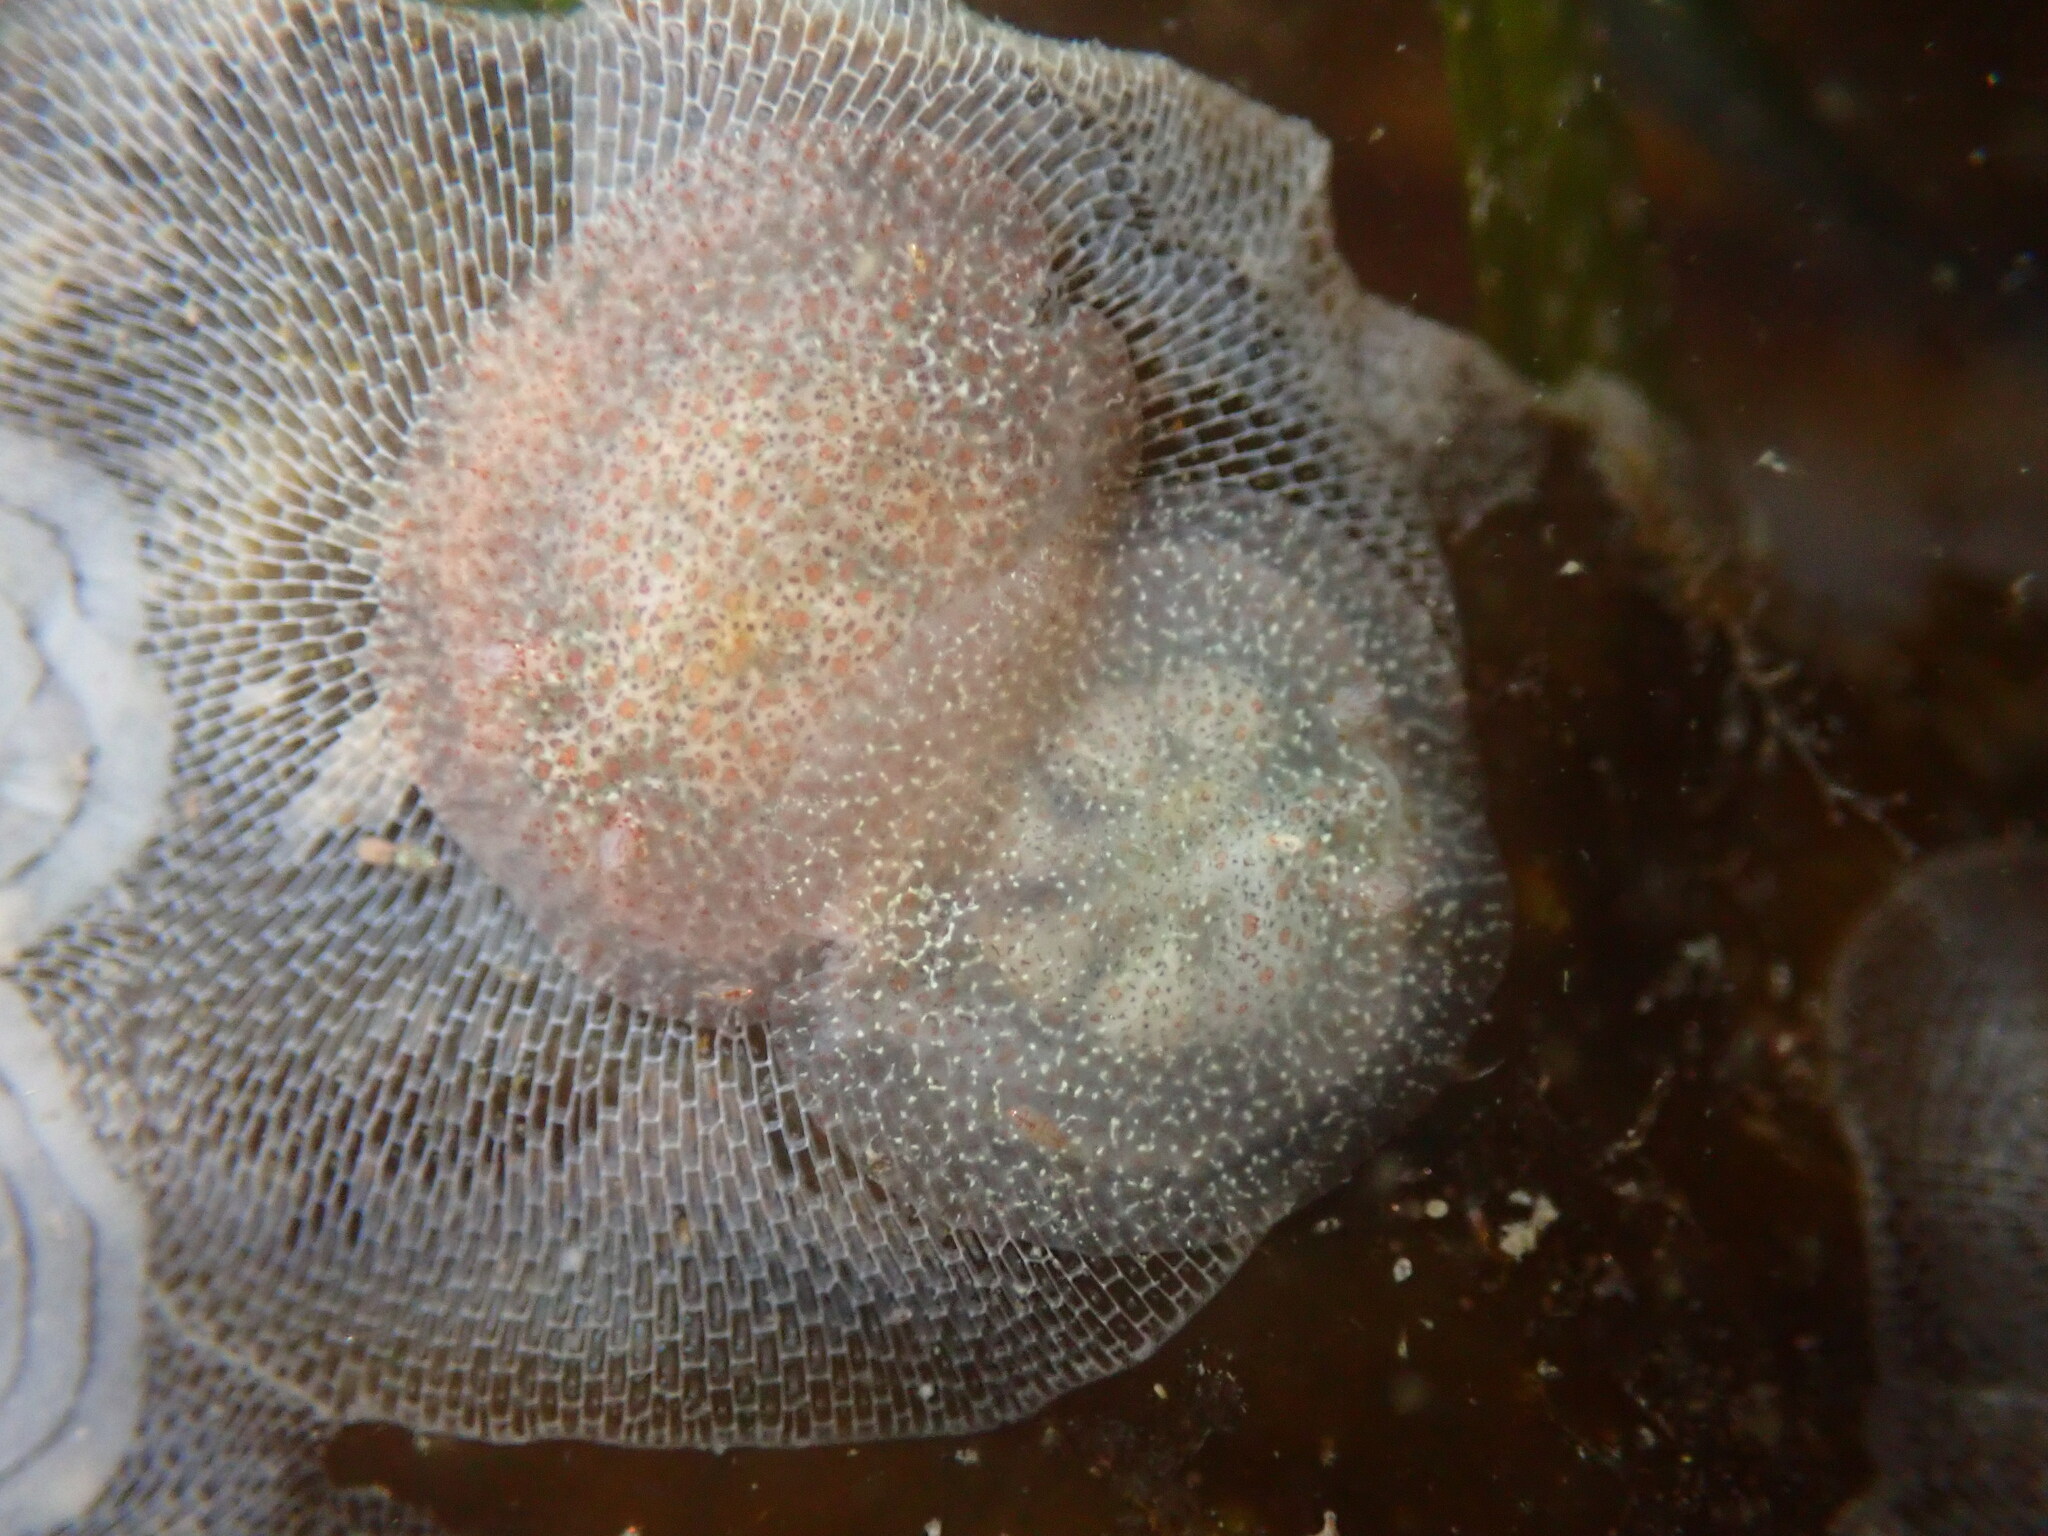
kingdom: Animalia
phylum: Mollusca
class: Gastropoda
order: Nudibranchia
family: Corambidae
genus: Corambe
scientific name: Corambe pacifica
